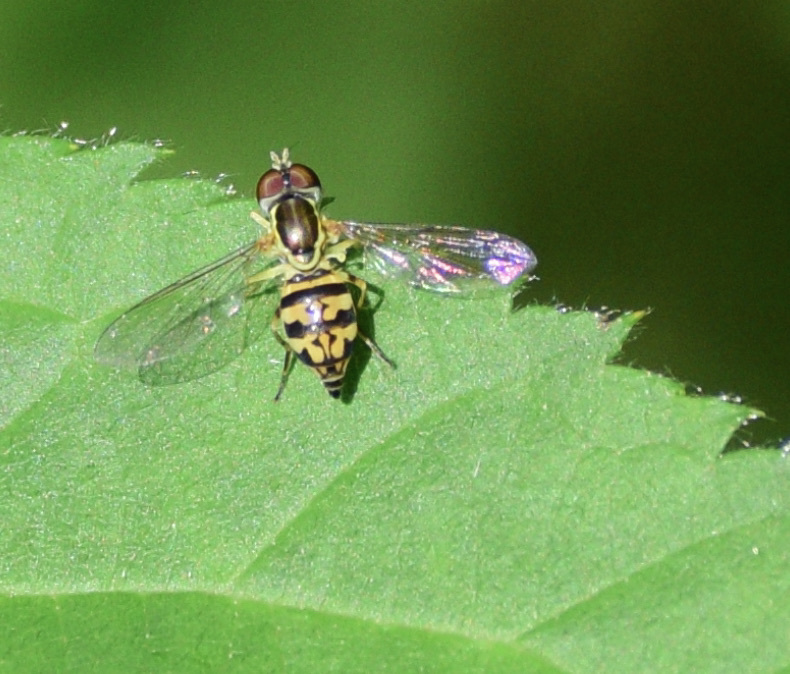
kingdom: Animalia
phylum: Arthropoda
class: Insecta
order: Diptera
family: Syrphidae
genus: Toxomerus
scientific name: Toxomerus geminatus
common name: Eastern calligrapher
